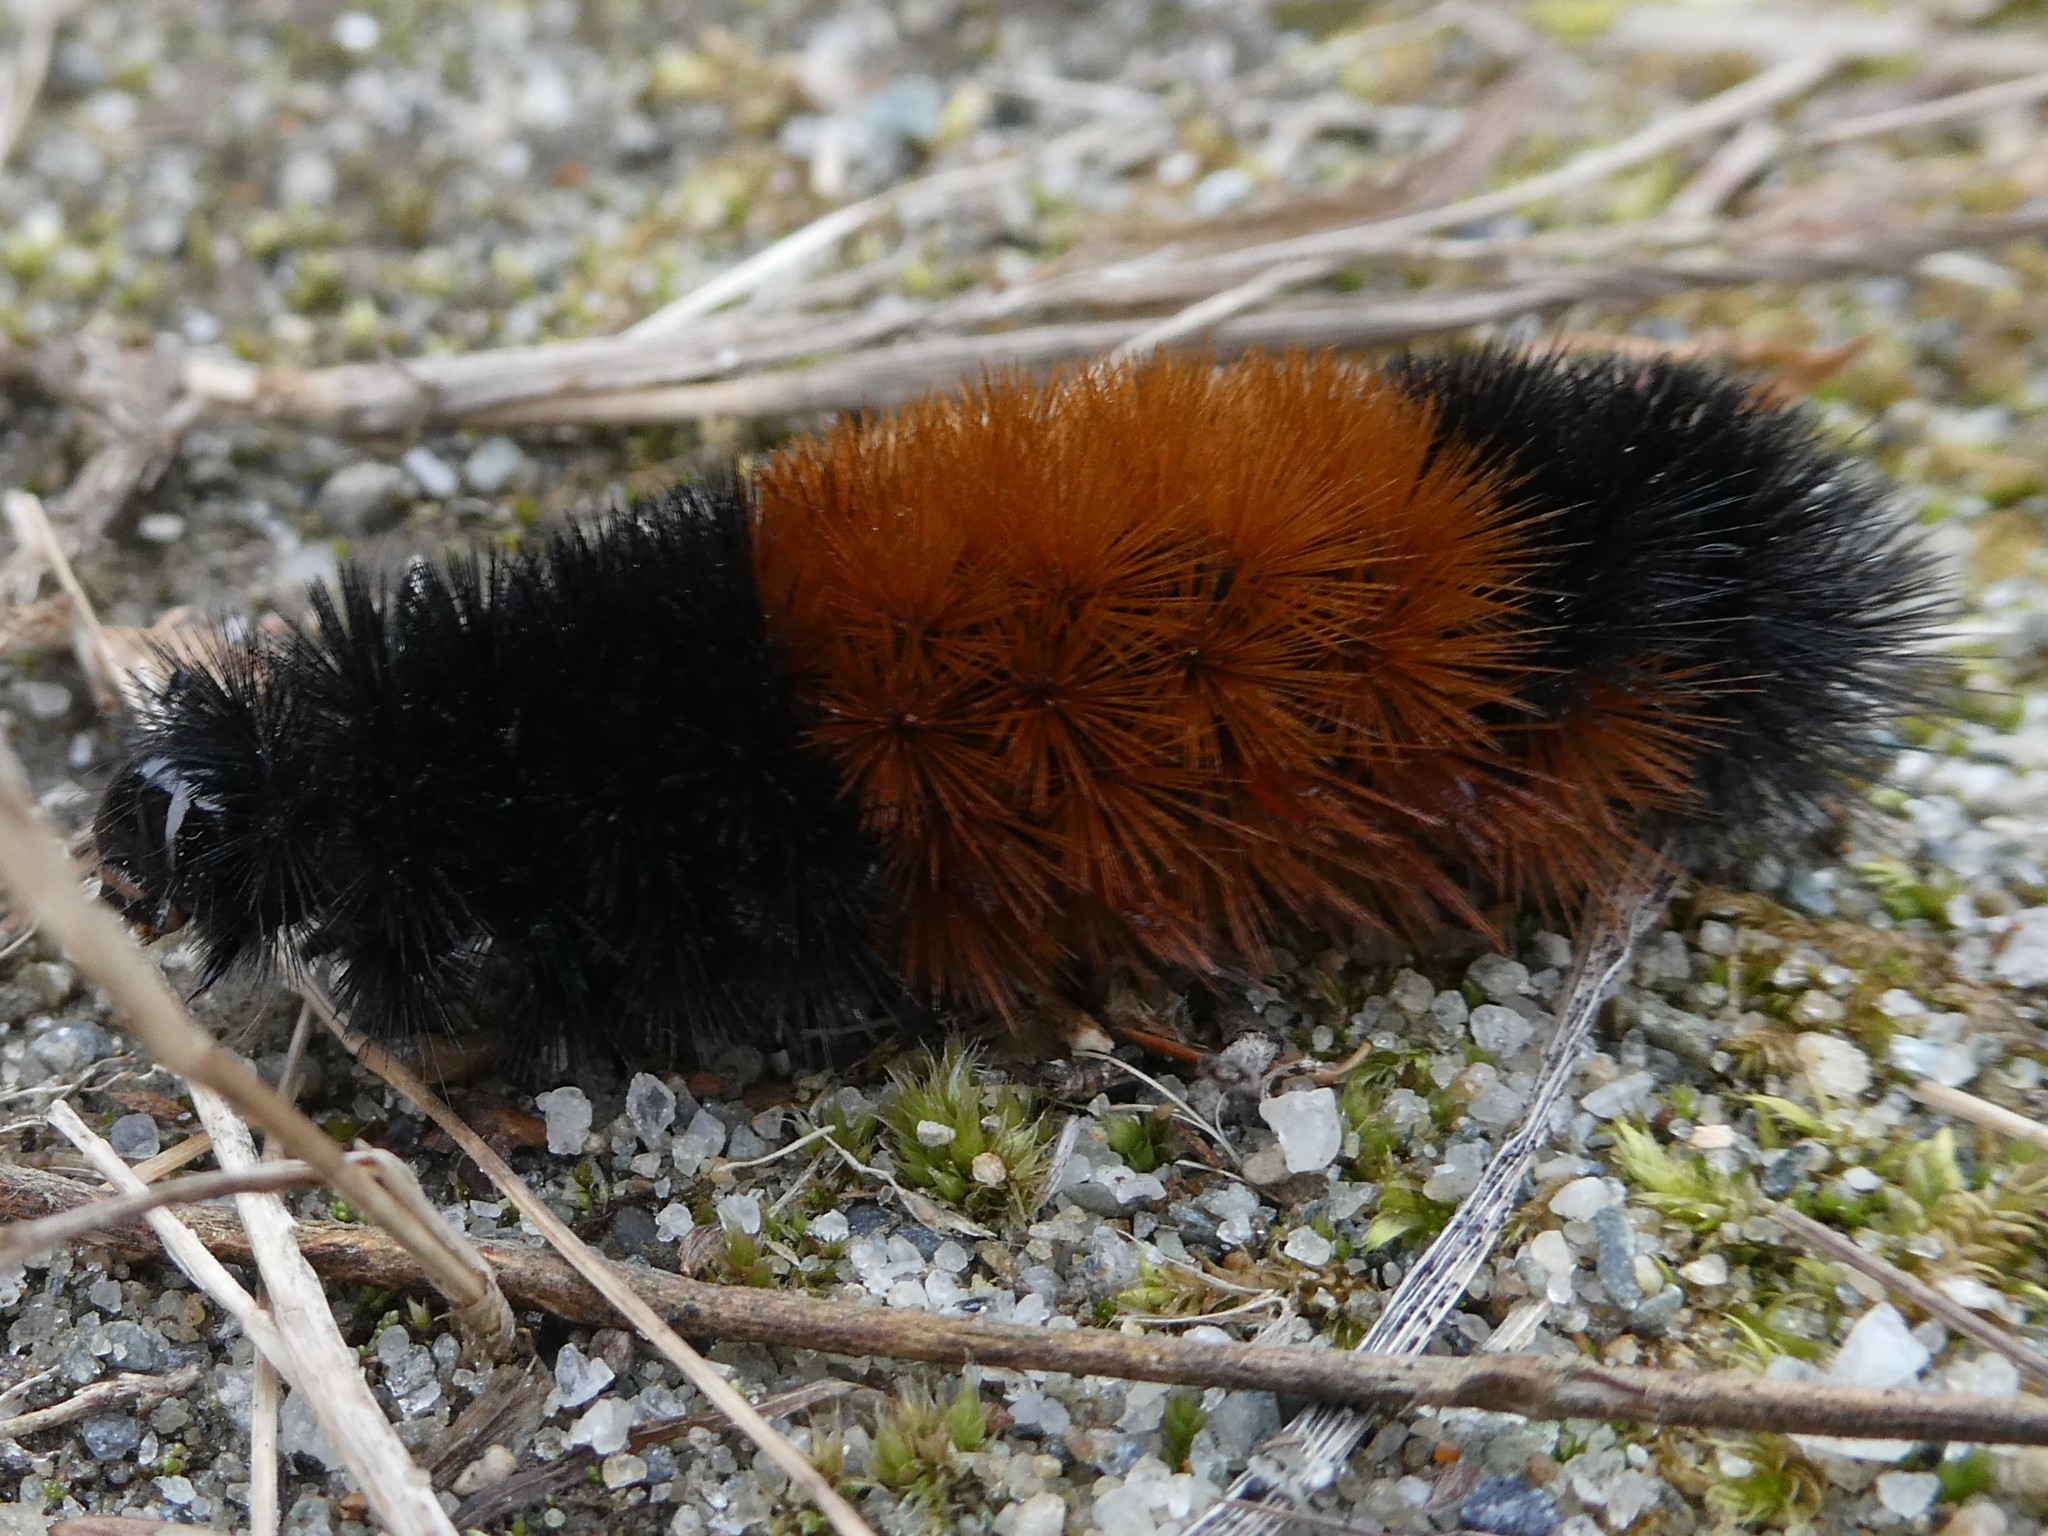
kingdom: Animalia
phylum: Arthropoda
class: Insecta
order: Lepidoptera
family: Erebidae
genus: Pyrrharctia
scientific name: Pyrrharctia isabella
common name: Isabella tiger moth
